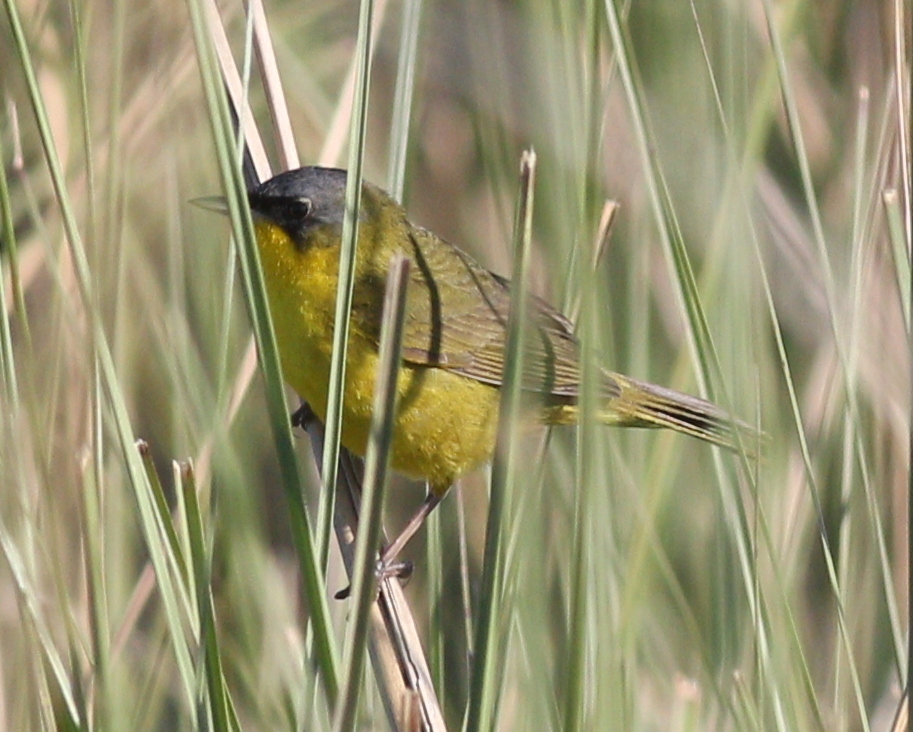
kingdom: Animalia
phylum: Chordata
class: Aves
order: Passeriformes
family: Parulidae
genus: Geothlypis
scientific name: Geothlypis velata
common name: Southern yellowthroat
